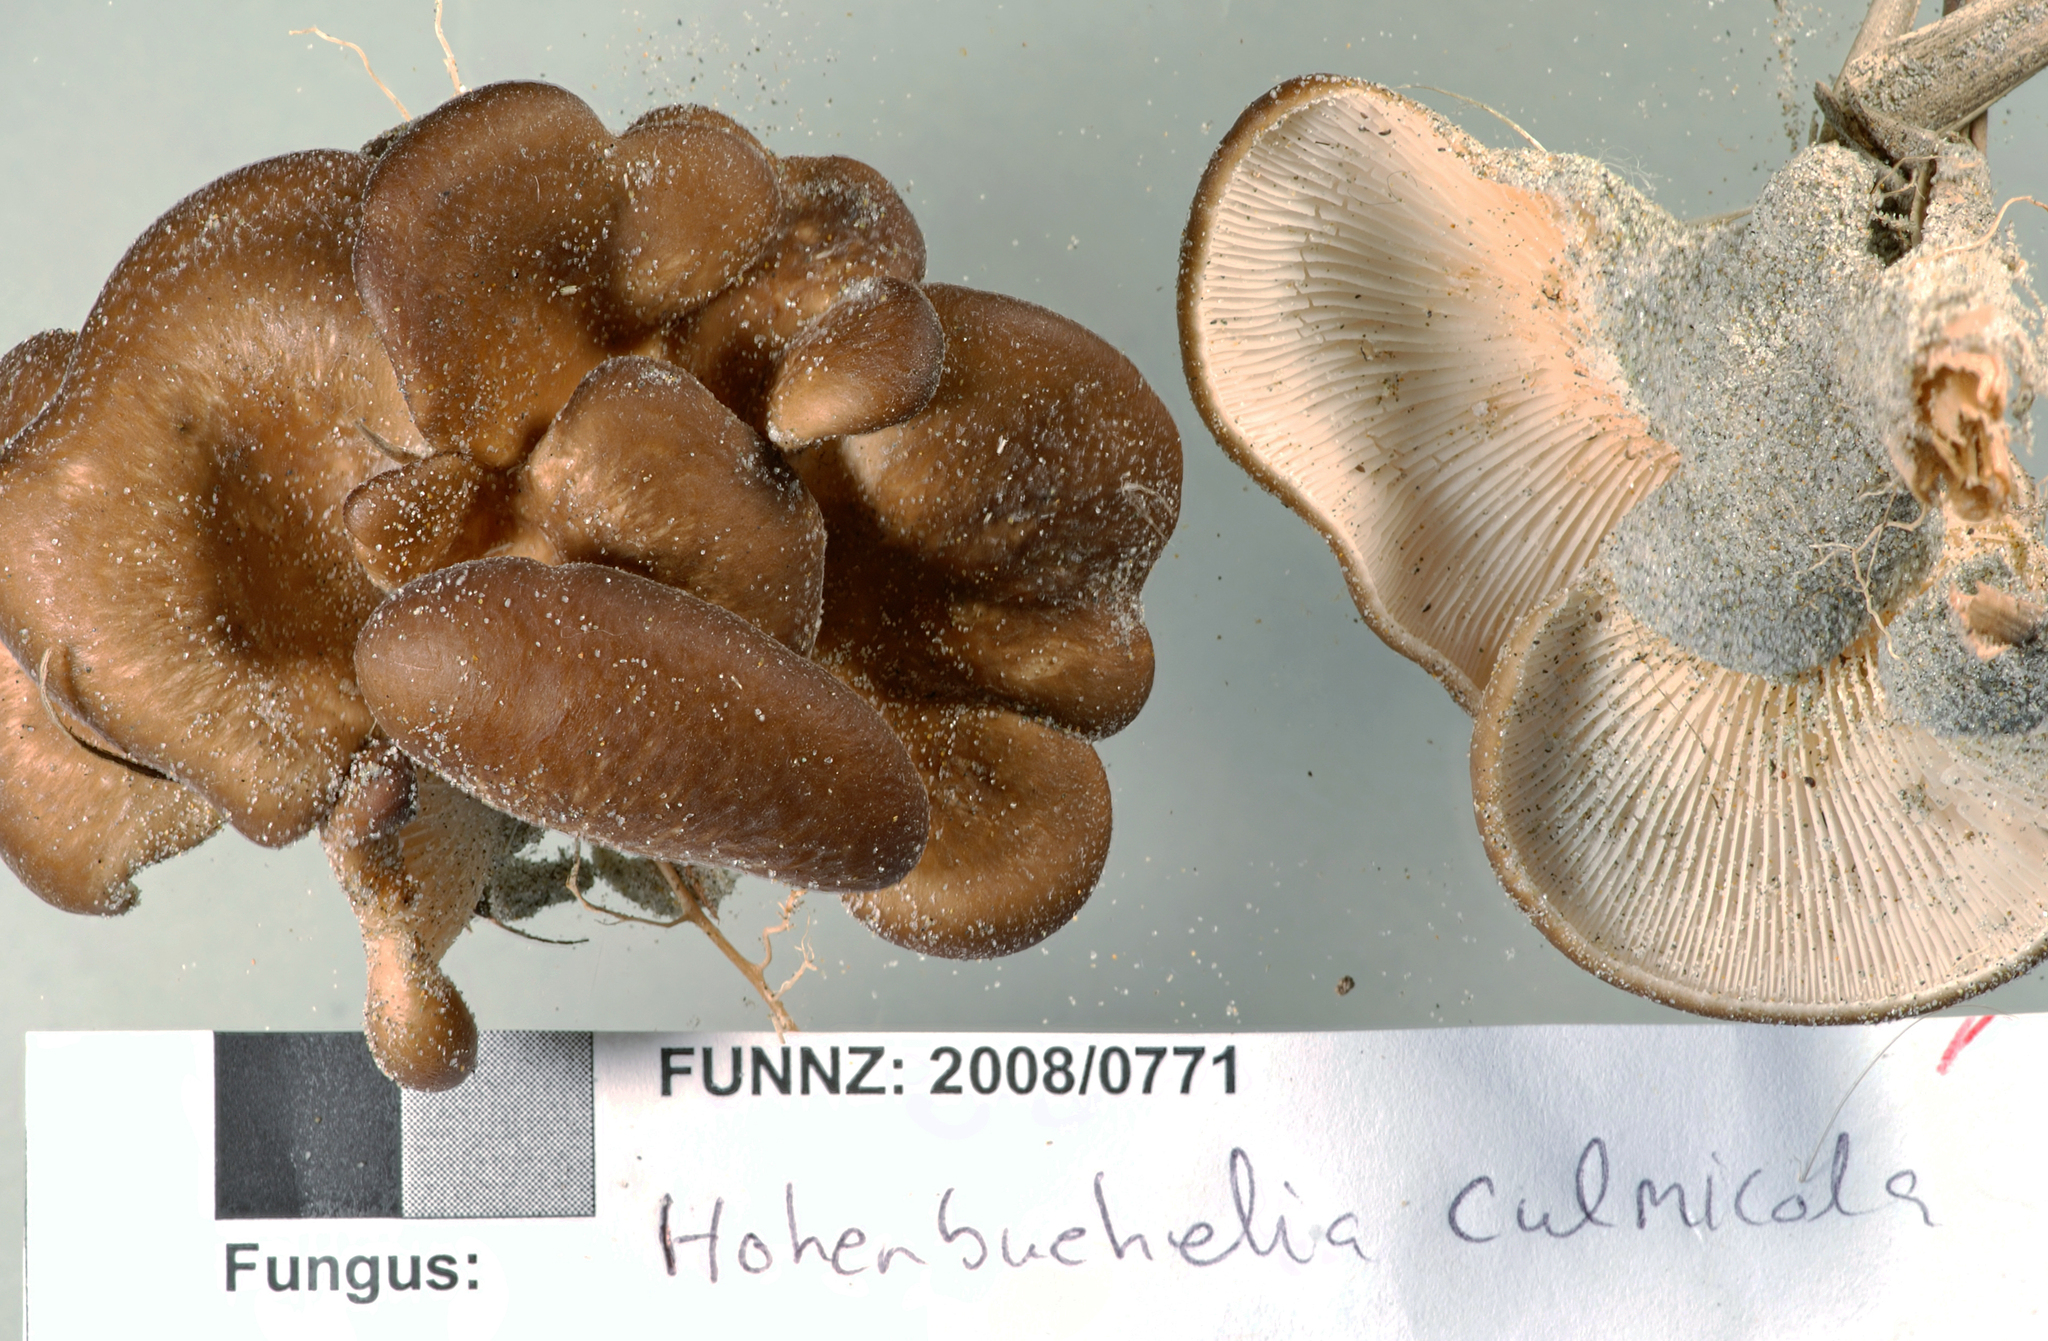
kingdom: Fungi
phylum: Basidiomycota
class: Agaricomycetes
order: Agaricales
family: Pleurotaceae
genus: Hohenbuehelia
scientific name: Hohenbuehelia bonii
